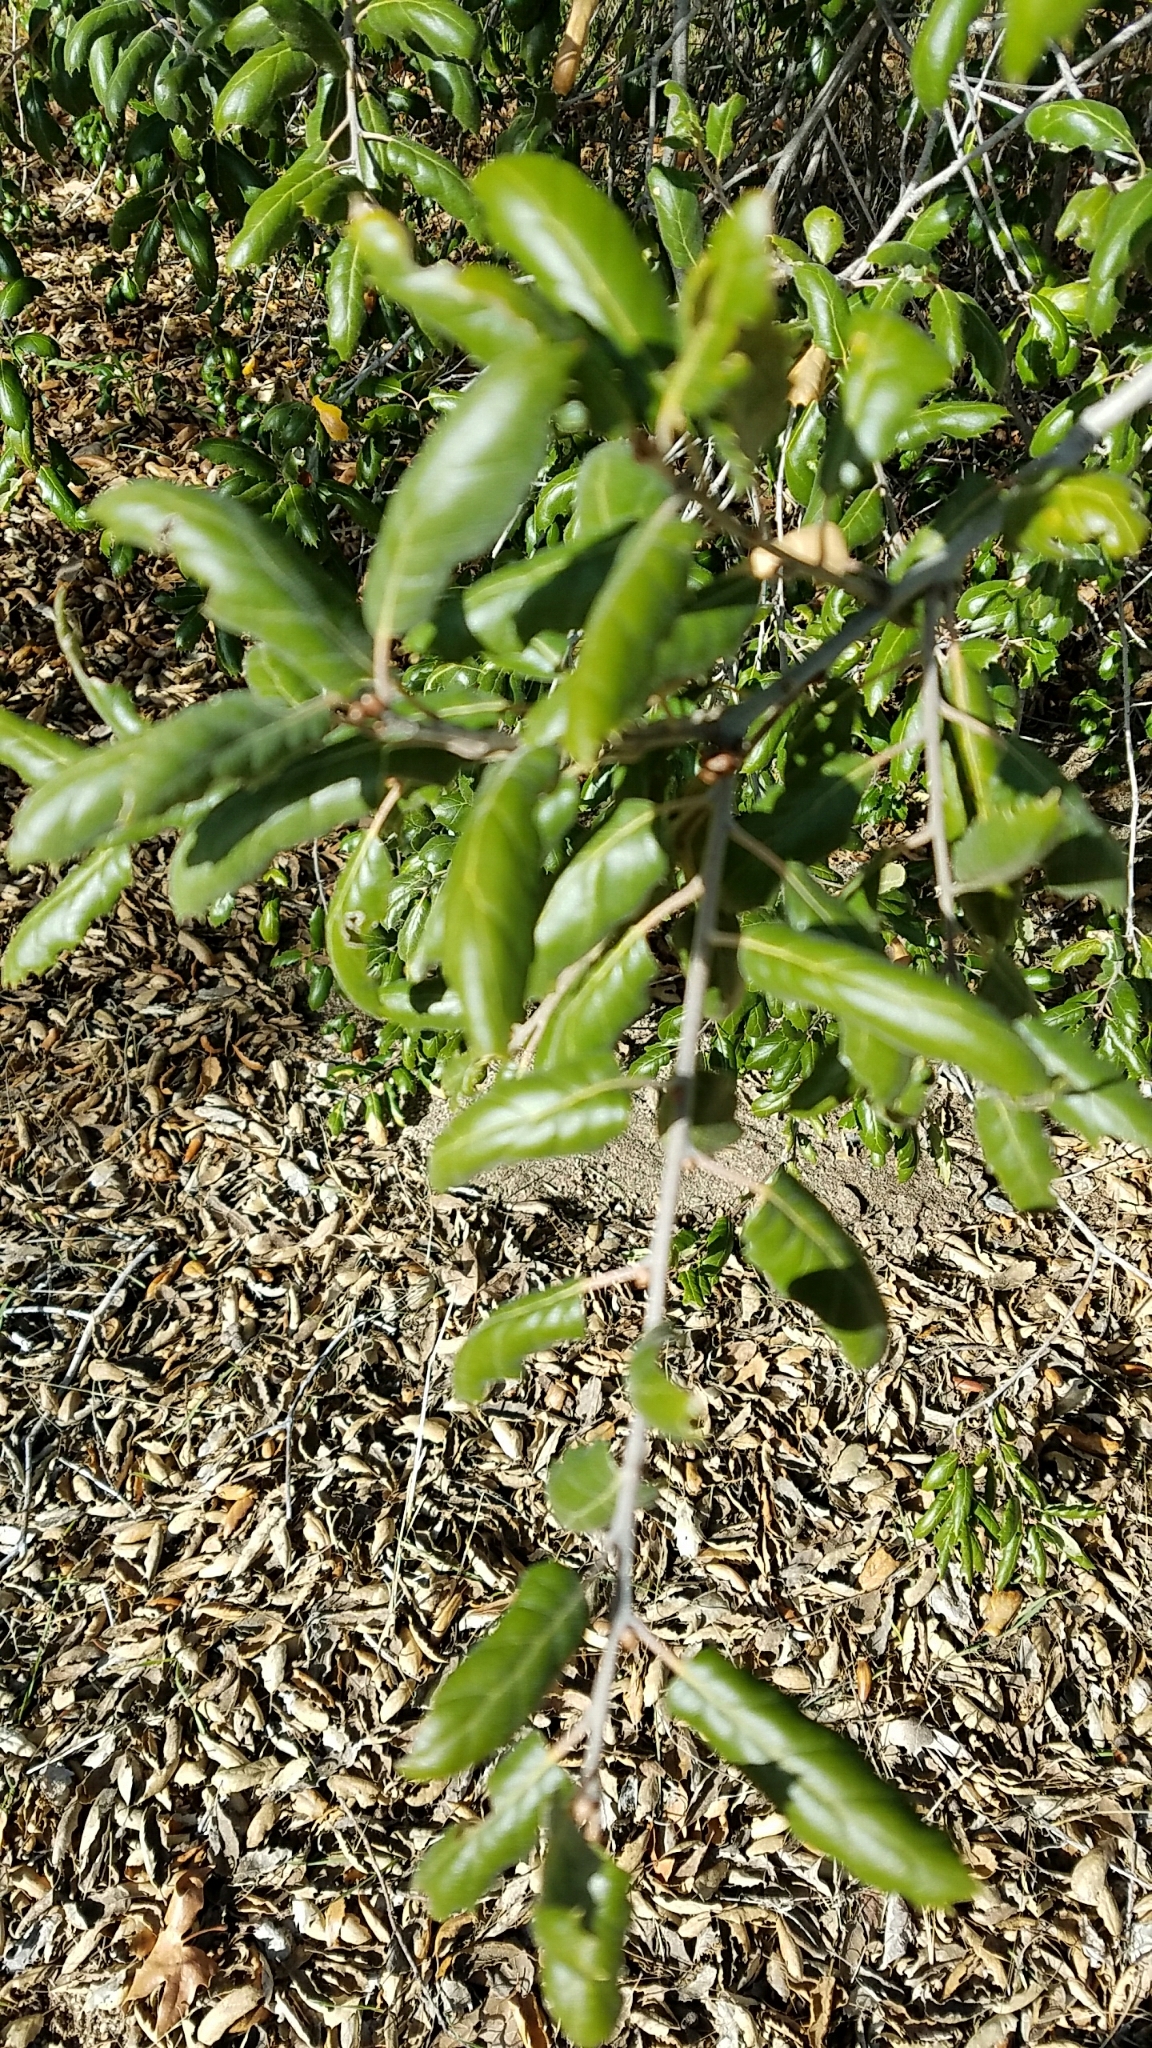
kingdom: Plantae
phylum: Tracheophyta
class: Magnoliopsida
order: Fagales
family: Fagaceae
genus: Quercus
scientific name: Quercus agrifolia
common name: California live oak
